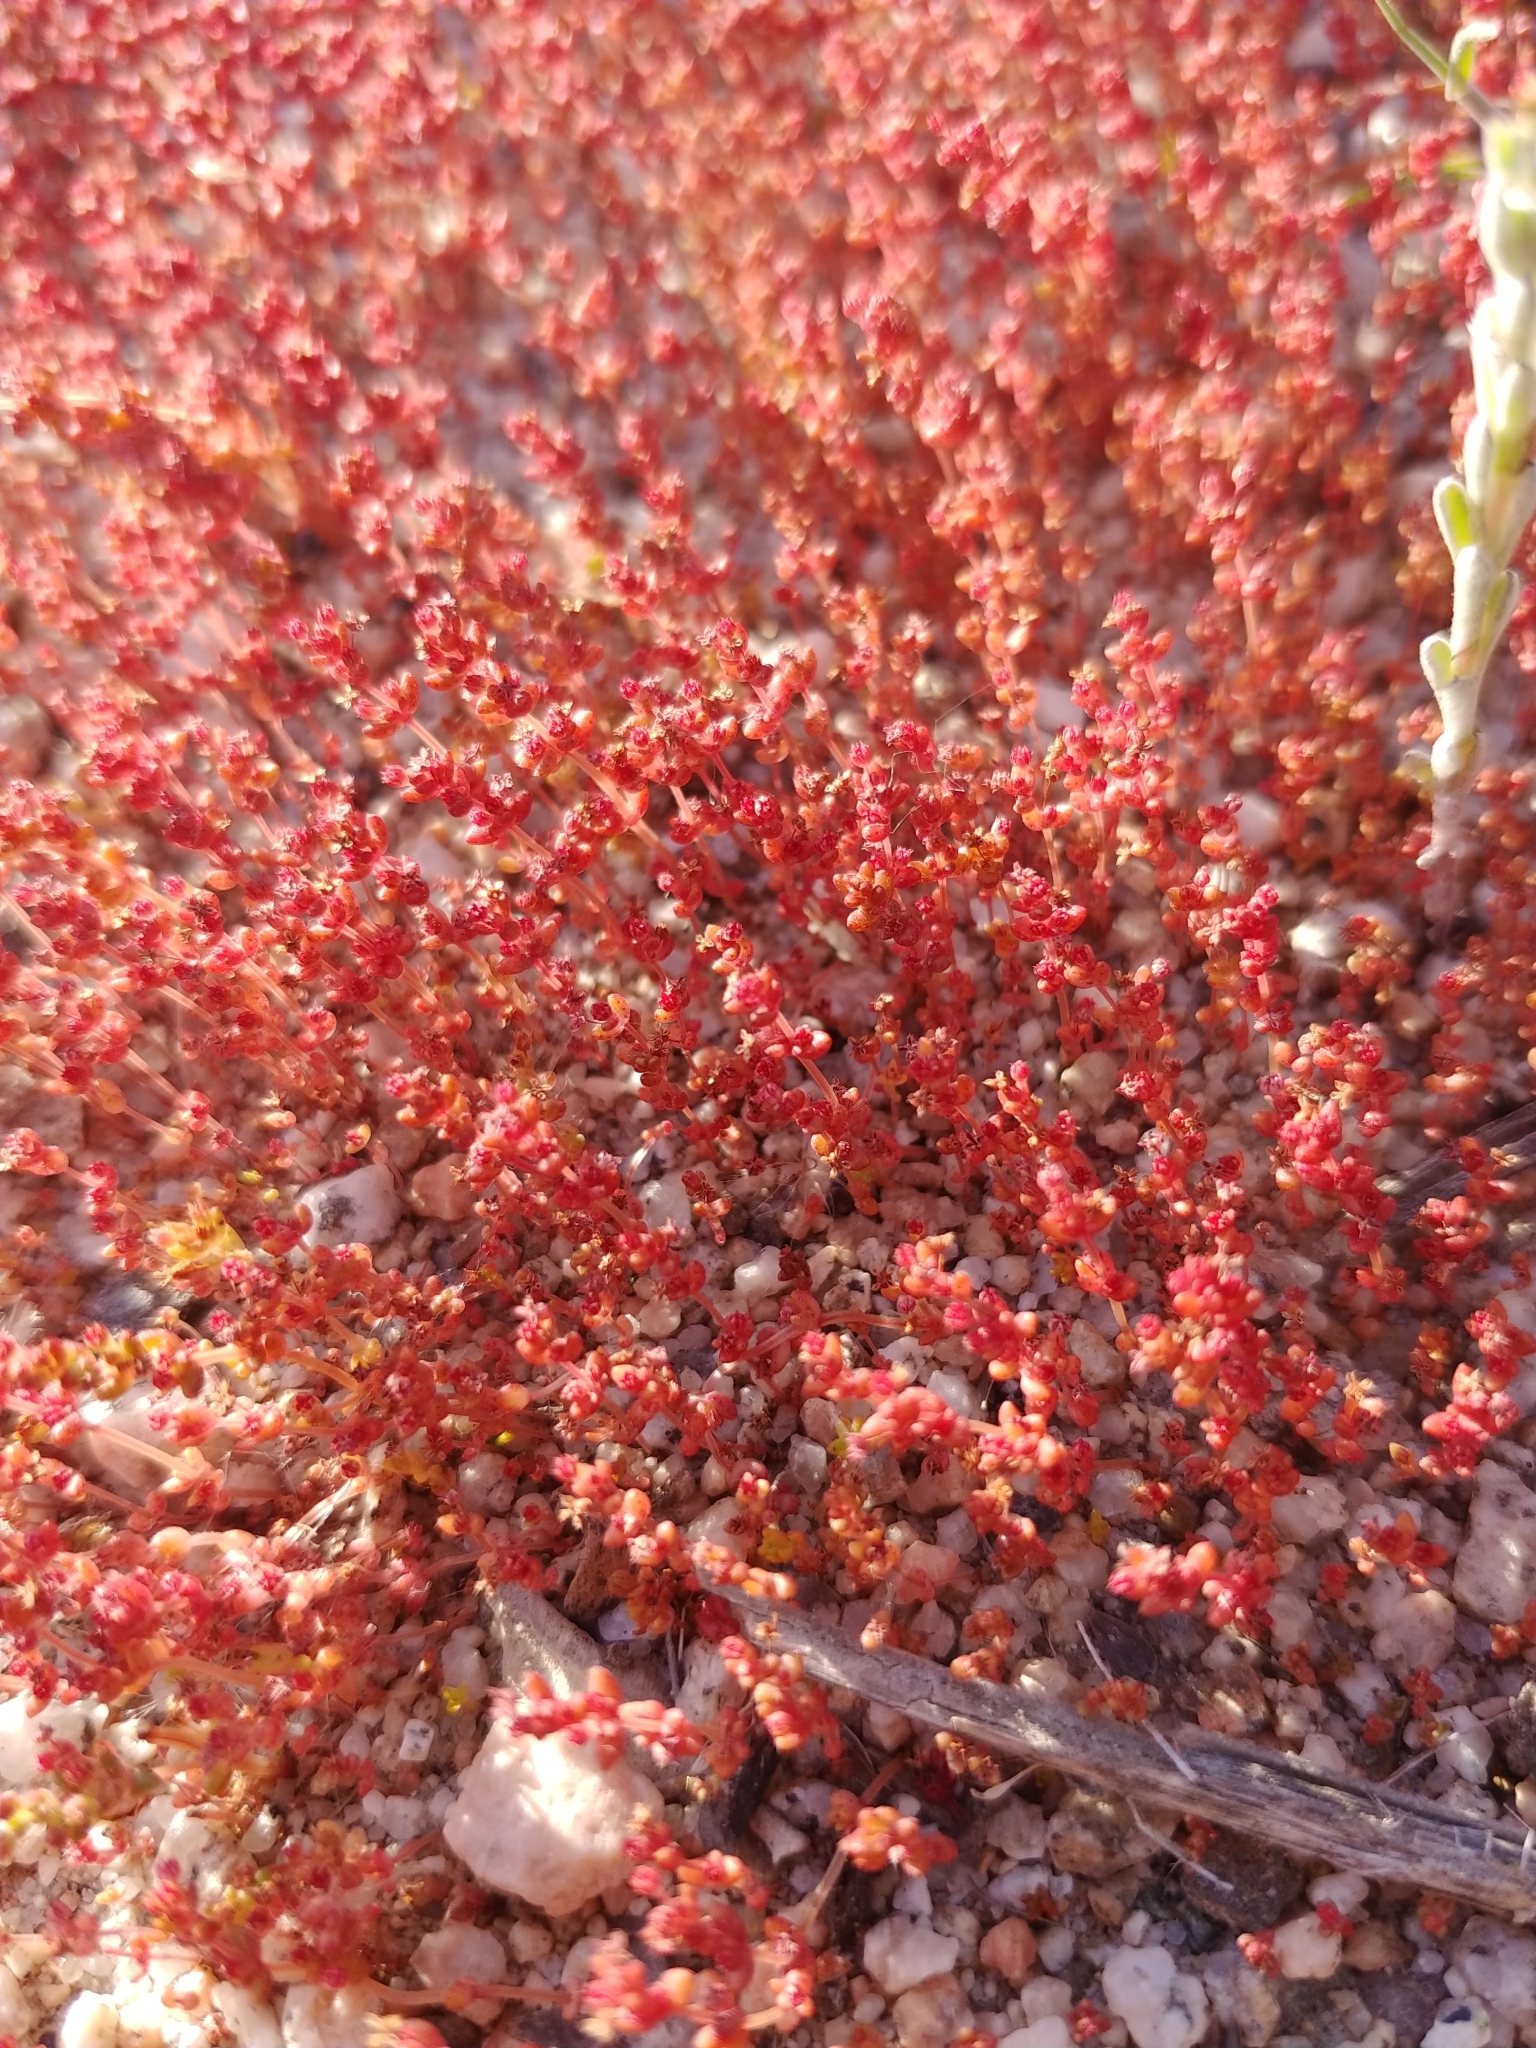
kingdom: Plantae
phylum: Tracheophyta
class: Magnoliopsida
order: Saxifragales
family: Crassulaceae
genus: Crassula
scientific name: Crassula connata
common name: Erect pygmyweed
